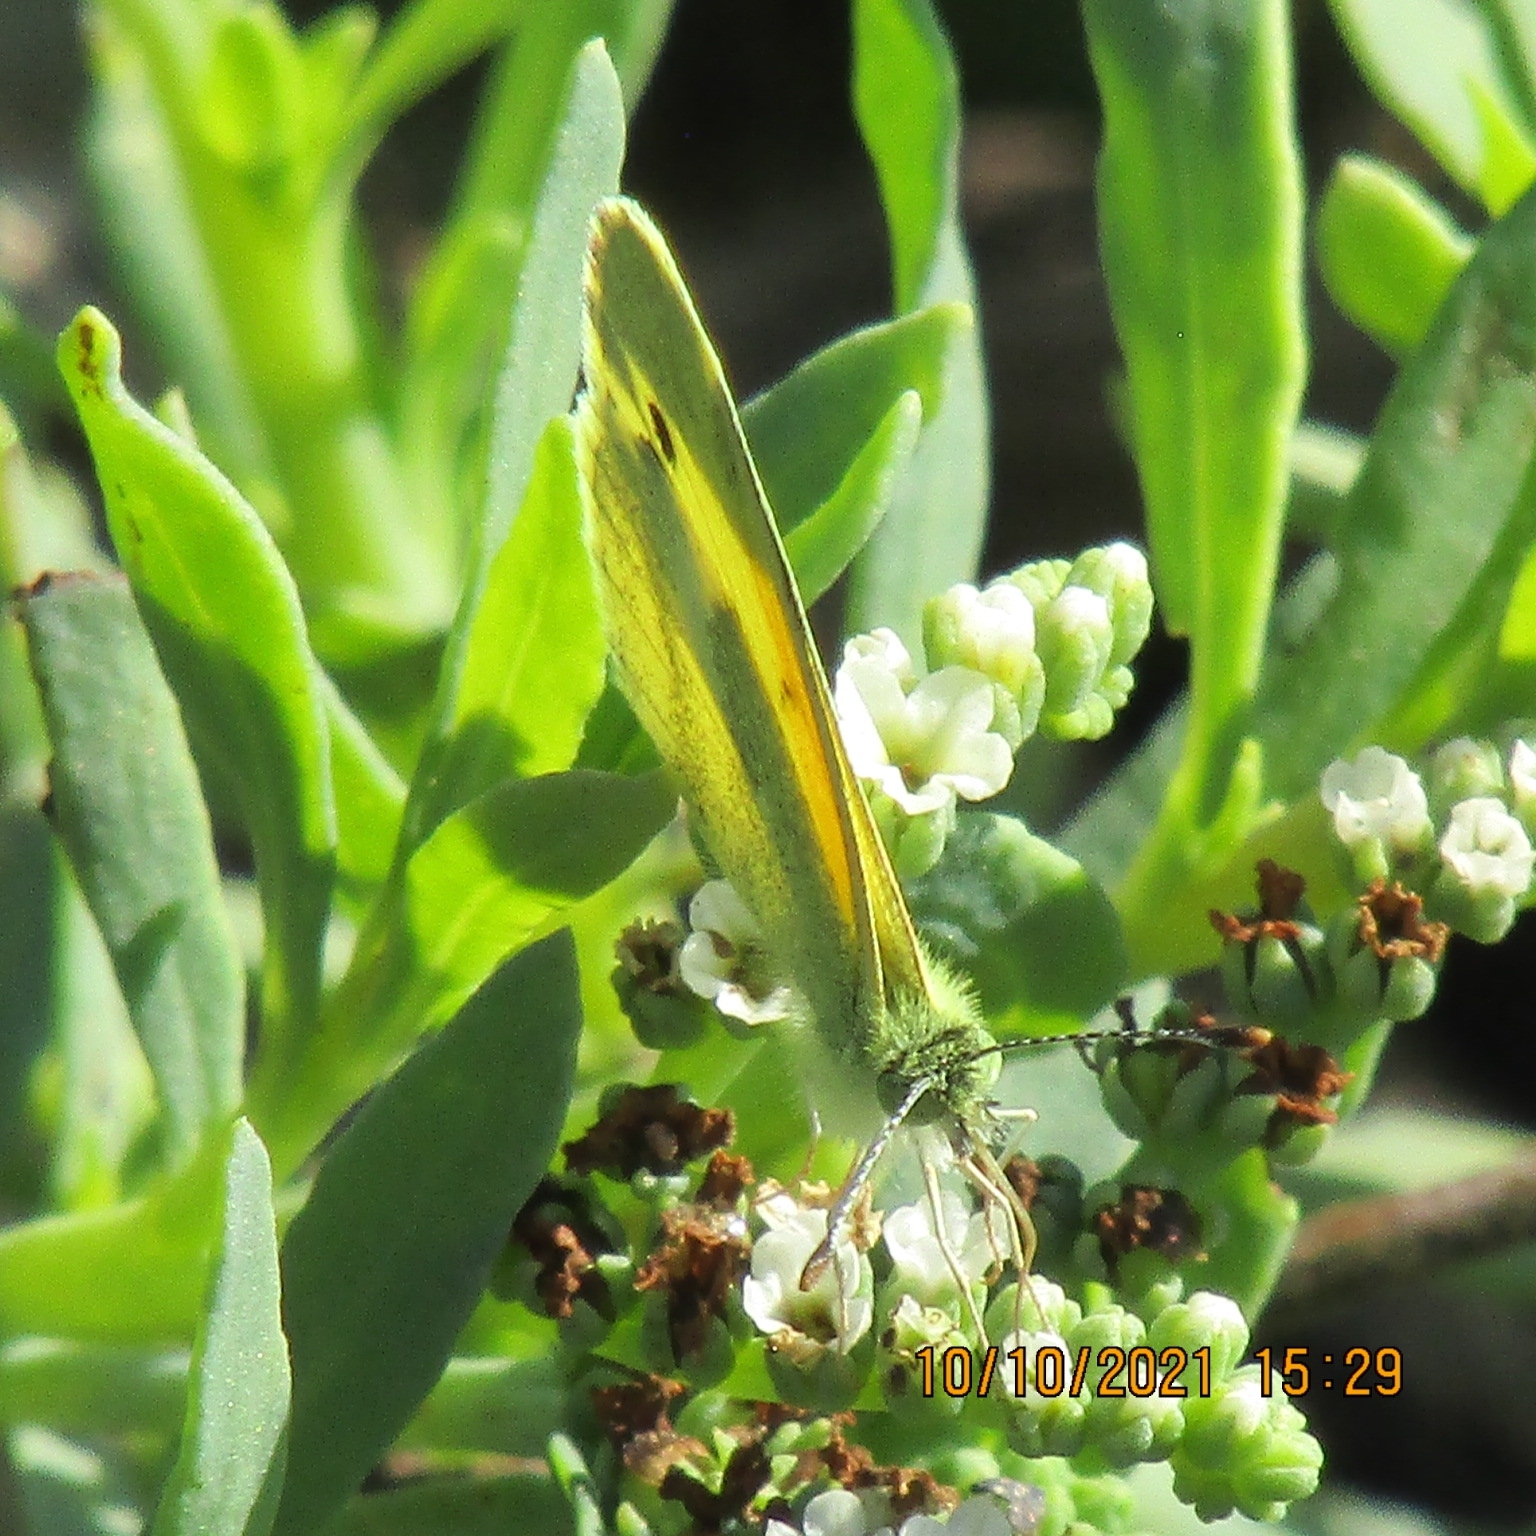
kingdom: Animalia
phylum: Arthropoda
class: Insecta
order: Lepidoptera
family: Pieridae
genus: Nathalis
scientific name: Nathalis iole
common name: Dainty sulphur
